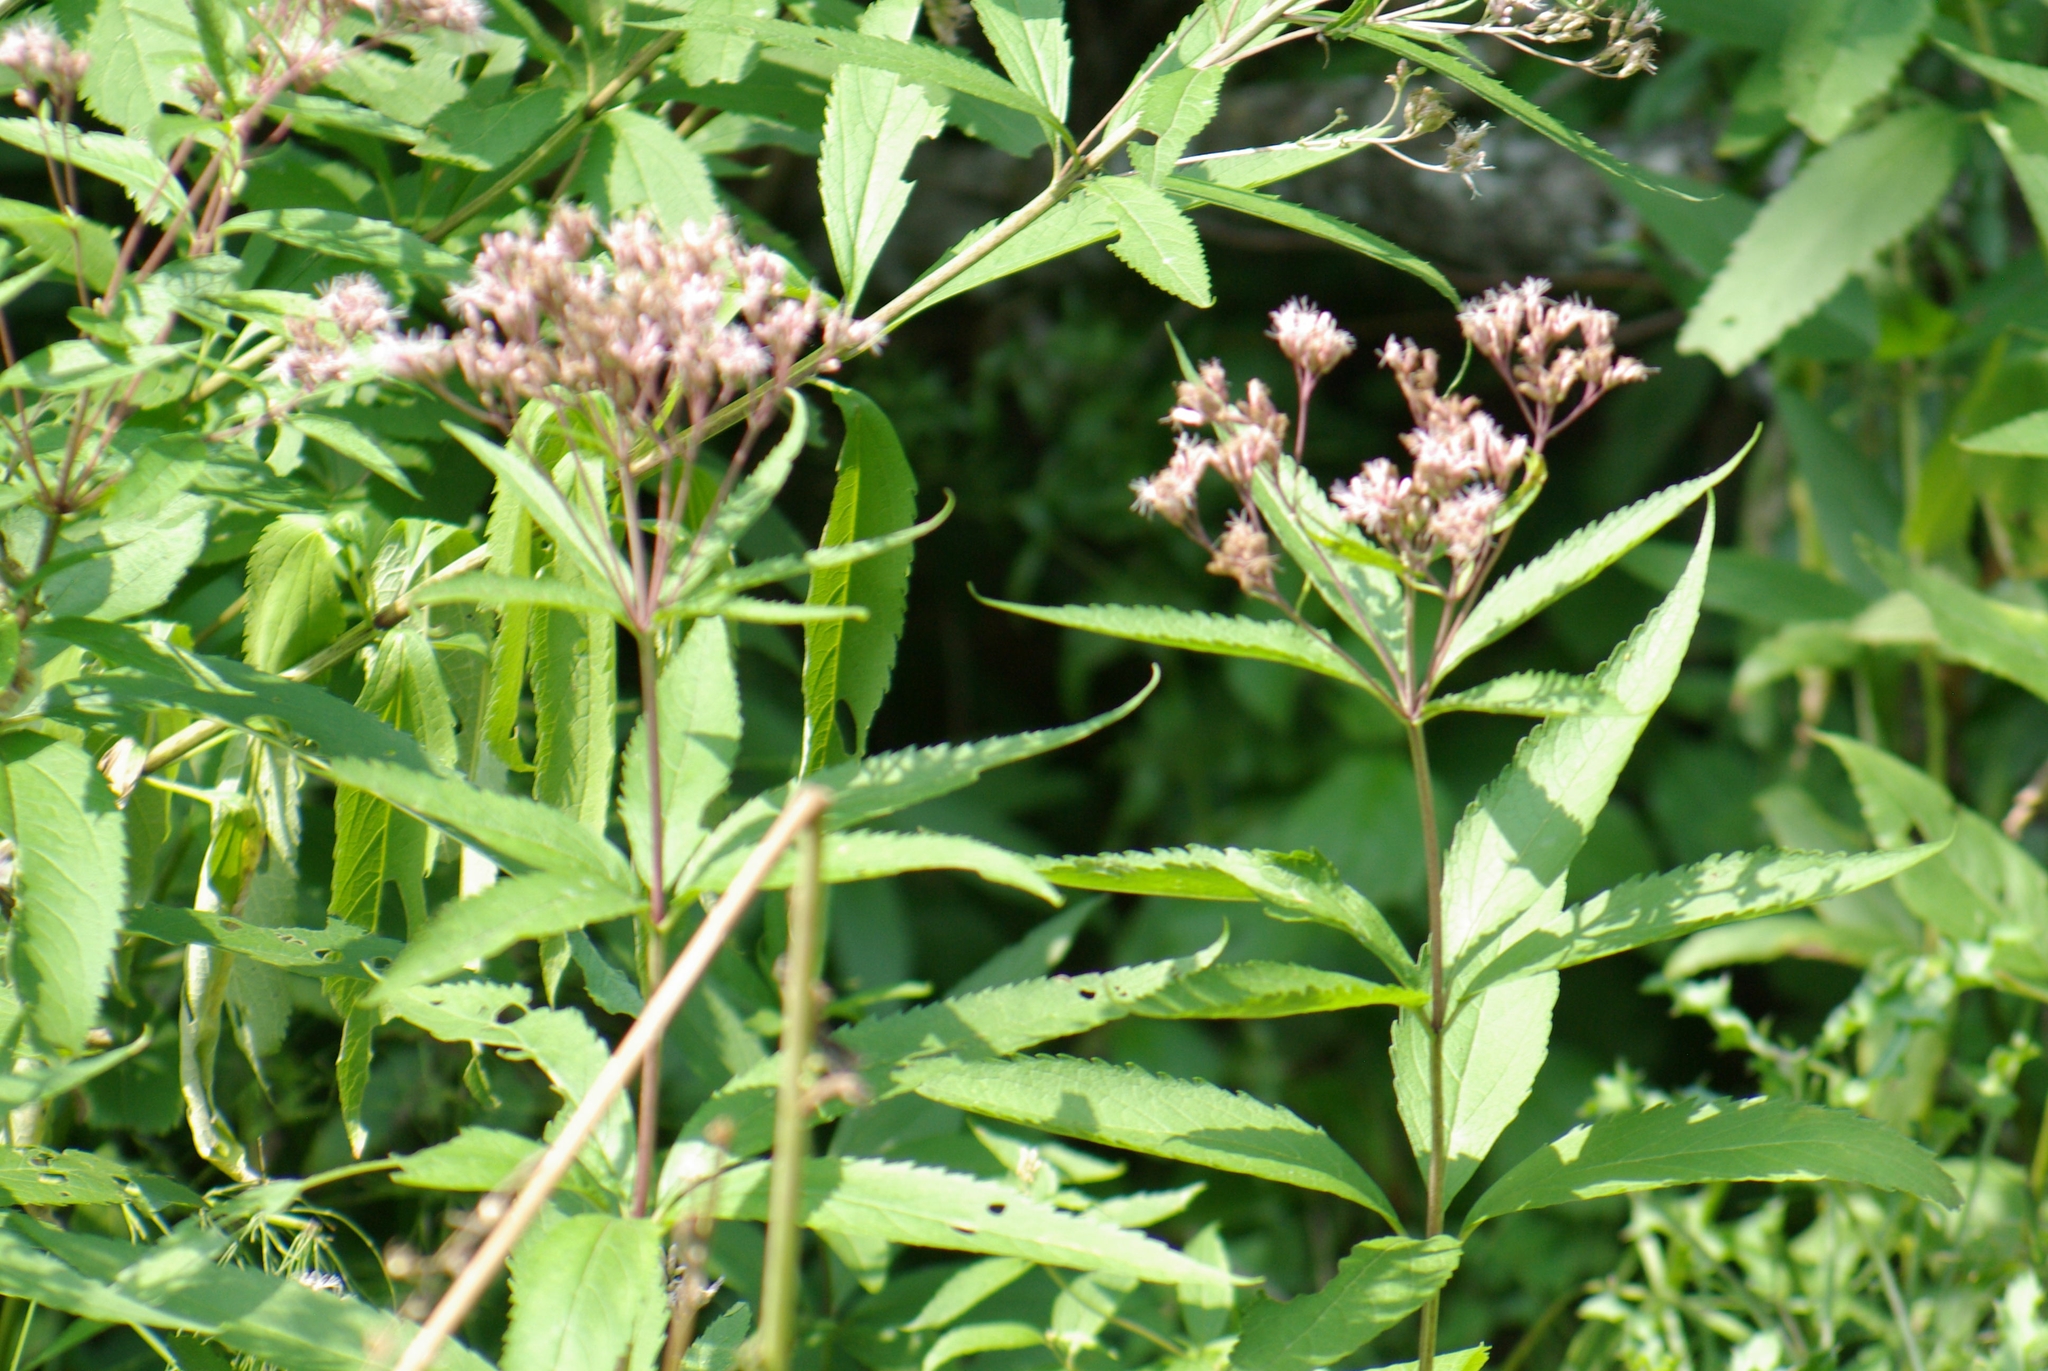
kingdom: Plantae
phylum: Tracheophyta
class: Magnoliopsida
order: Asterales
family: Asteraceae
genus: Eutrochium
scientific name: Eutrochium maculatum
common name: Spotted joe pye weed
